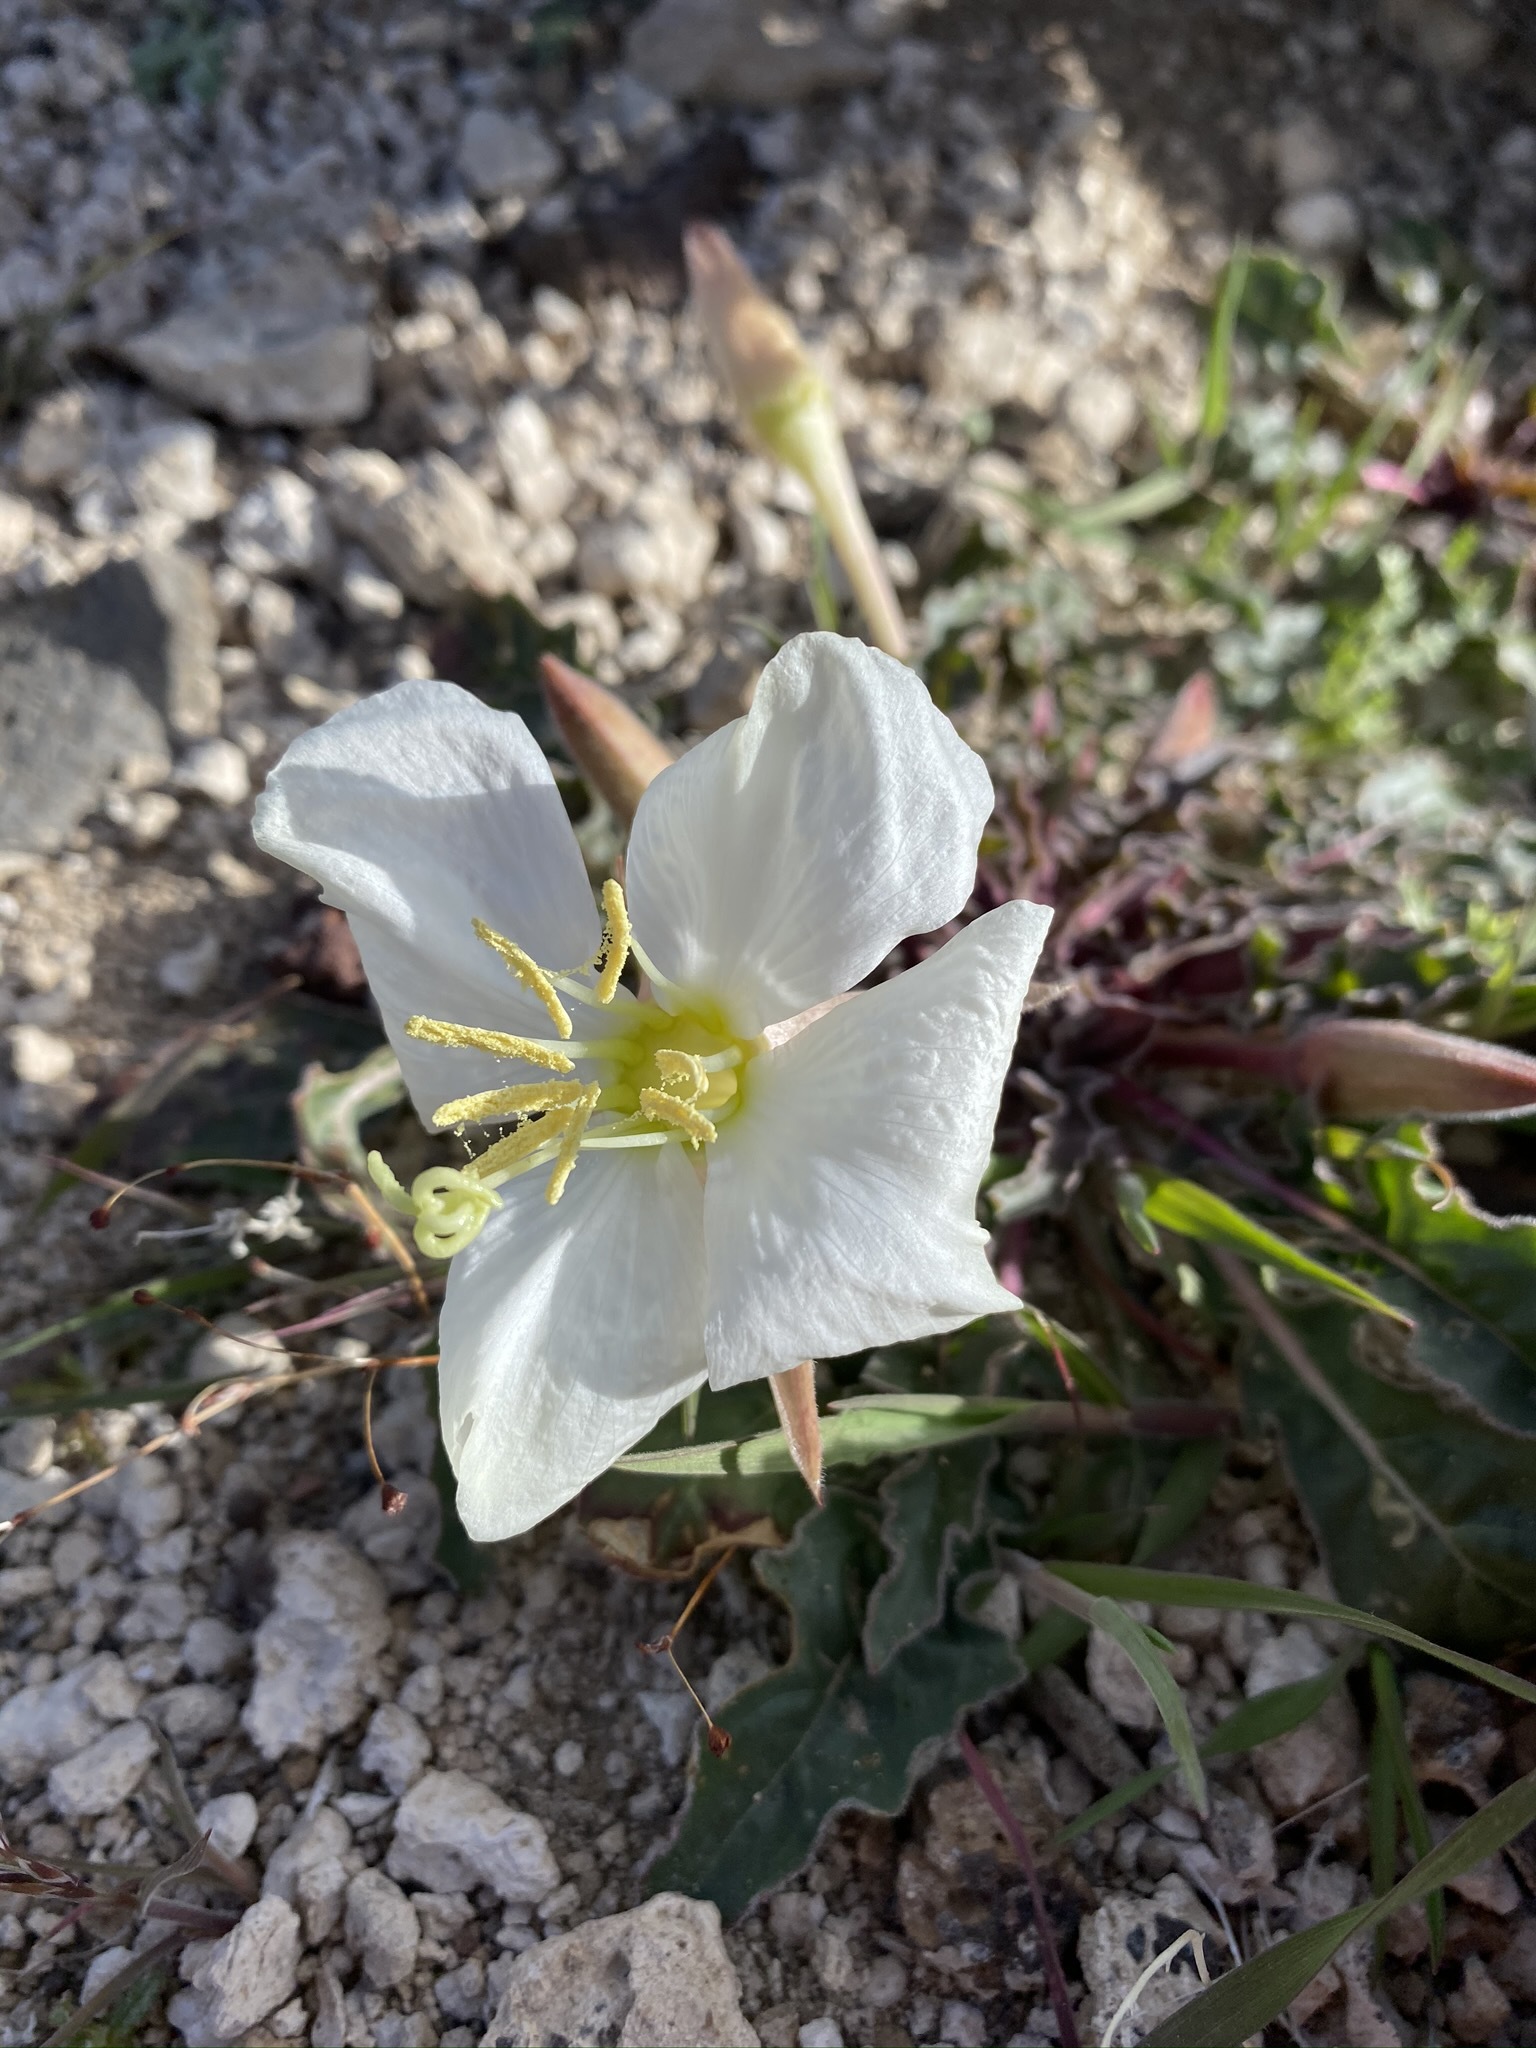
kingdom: Plantae
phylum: Tracheophyta
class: Magnoliopsida
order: Myrtales
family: Onagraceae
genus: Oenothera
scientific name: Oenothera cespitosa
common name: Tufted evening-primrose
